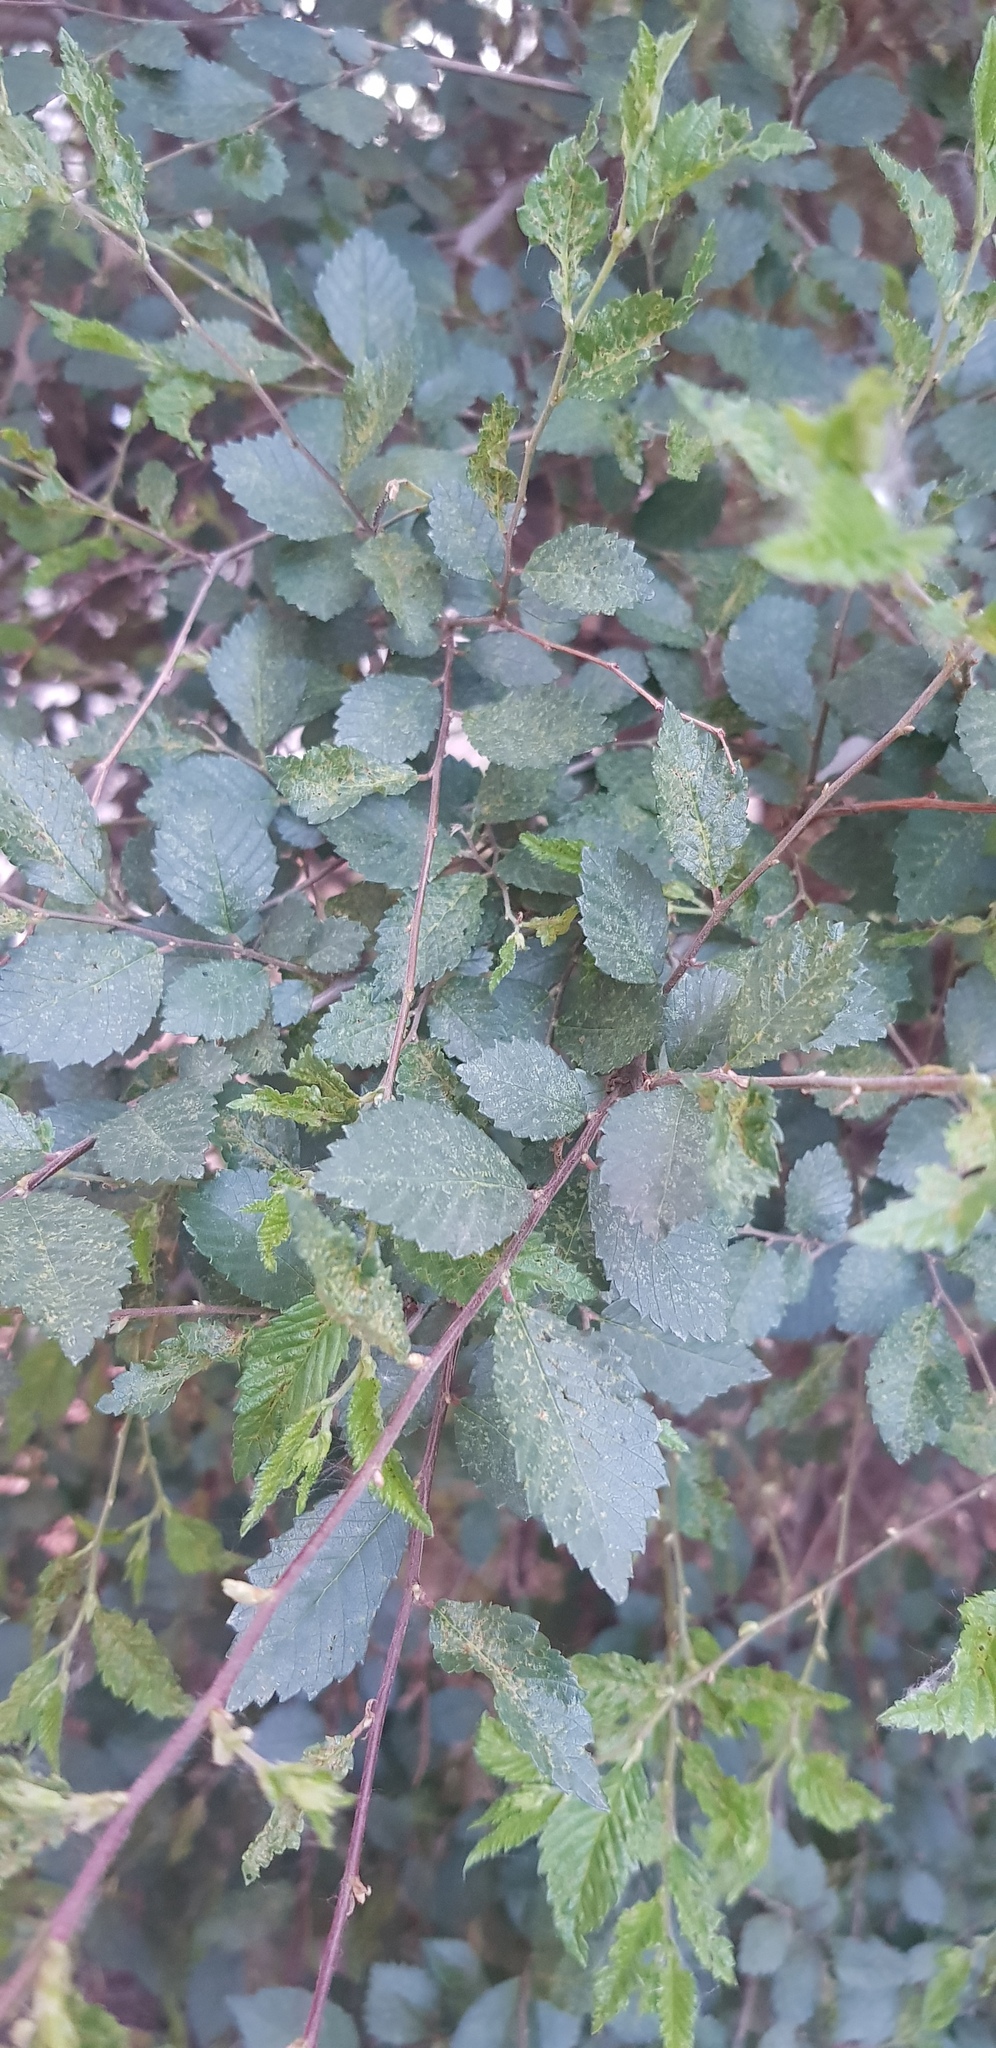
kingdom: Plantae
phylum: Tracheophyta
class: Magnoliopsida
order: Rosales
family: Ulmaceae
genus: Ulmus
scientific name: Ulmus pumila
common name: Siberian elm
